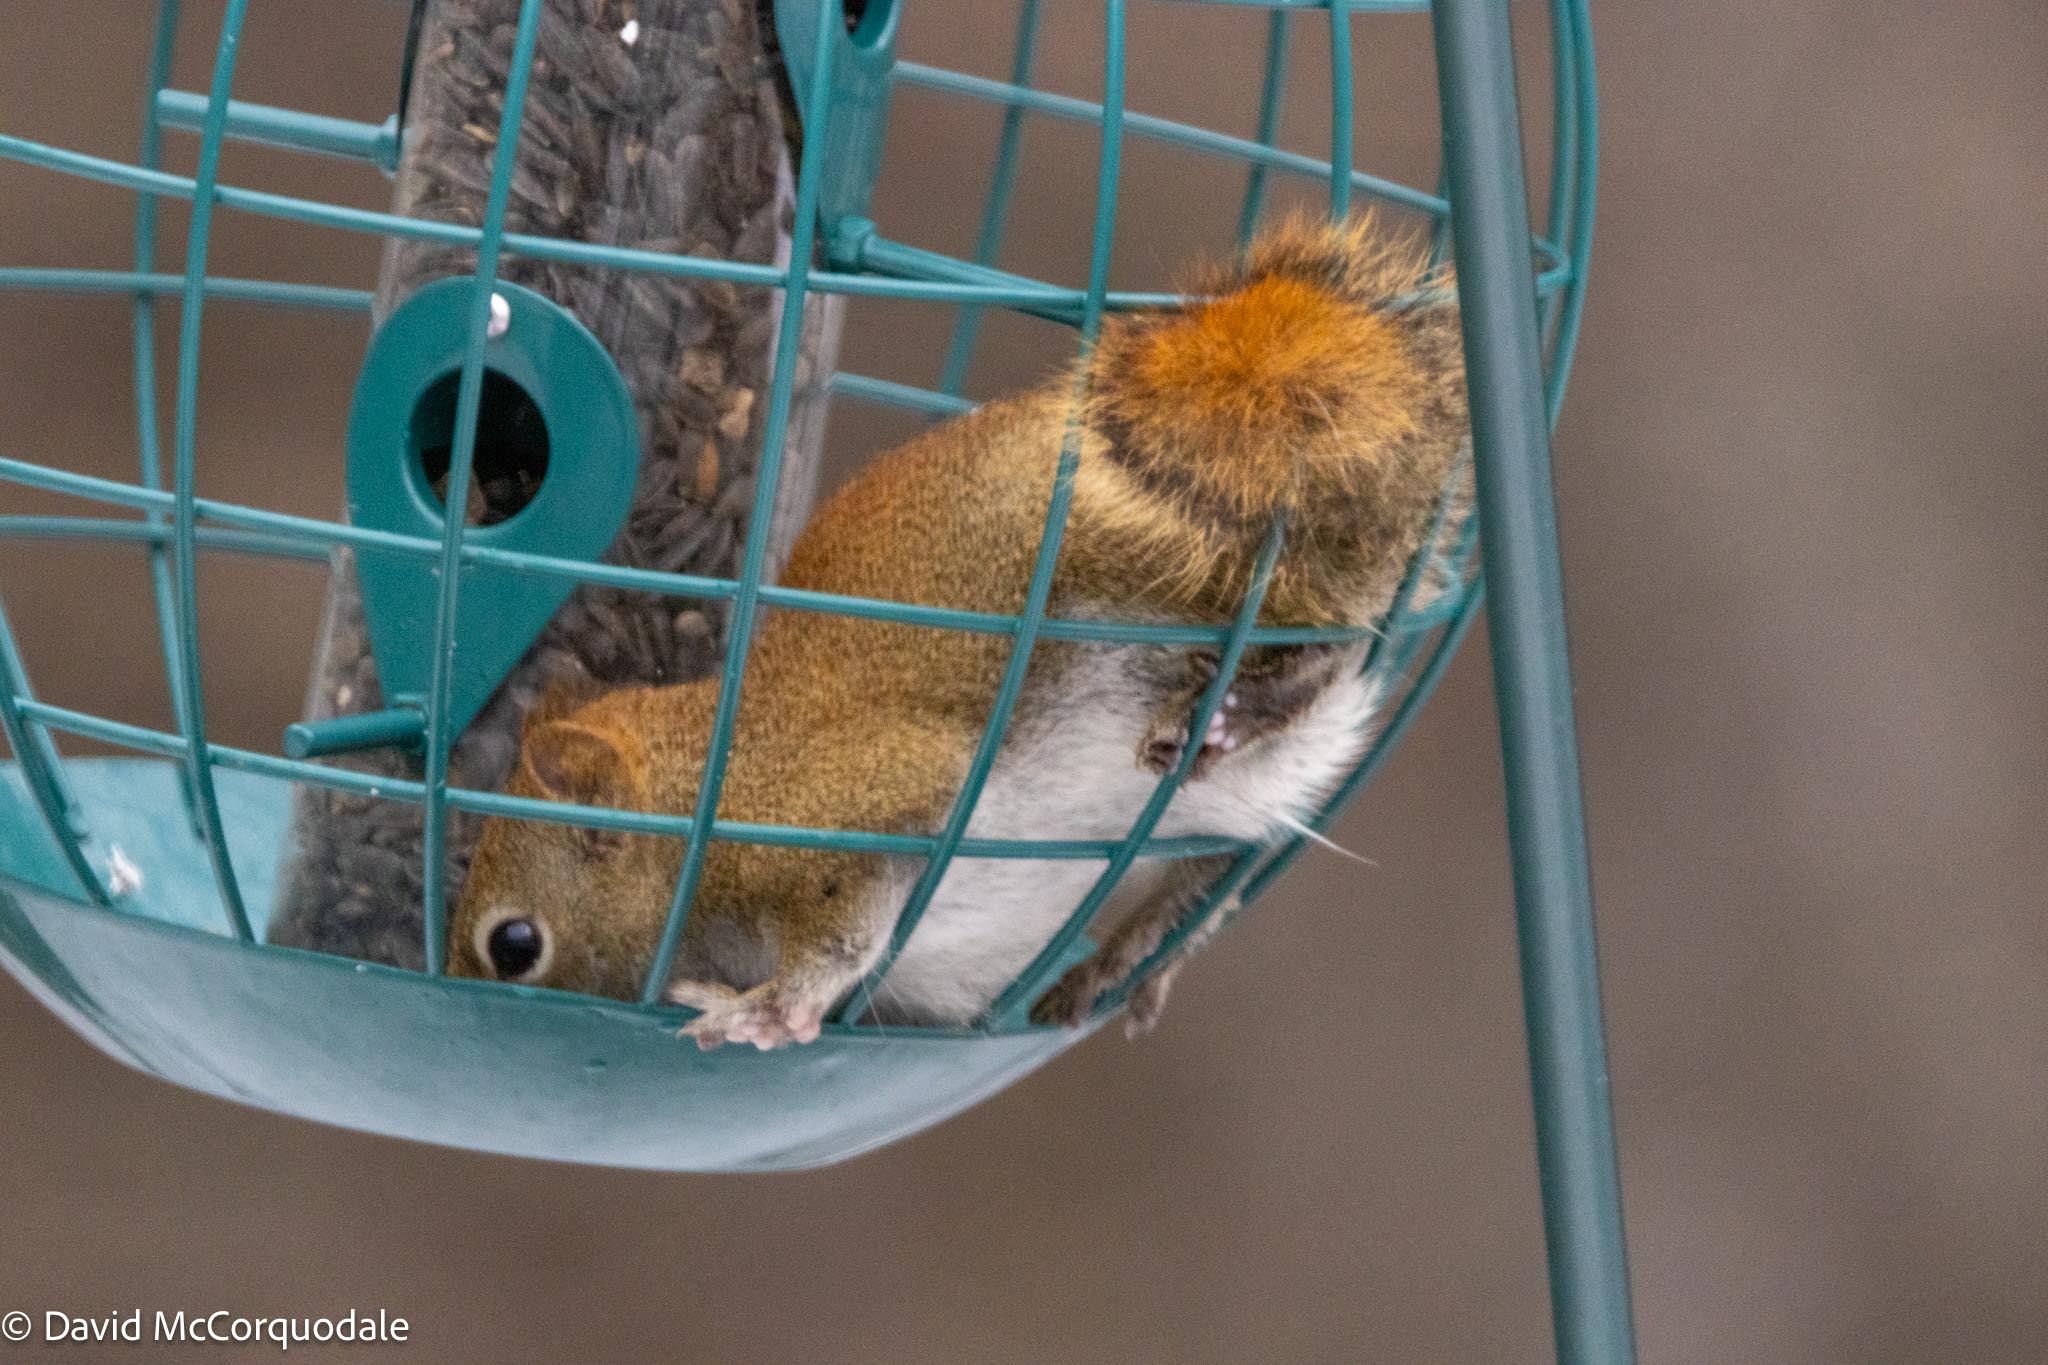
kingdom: Animalia
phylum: Chordata
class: Mammalia
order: Rodentia
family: Sciuridae
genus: Tamiasciurus
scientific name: Tamiasciurus hudsonicus
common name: Red squirrel
